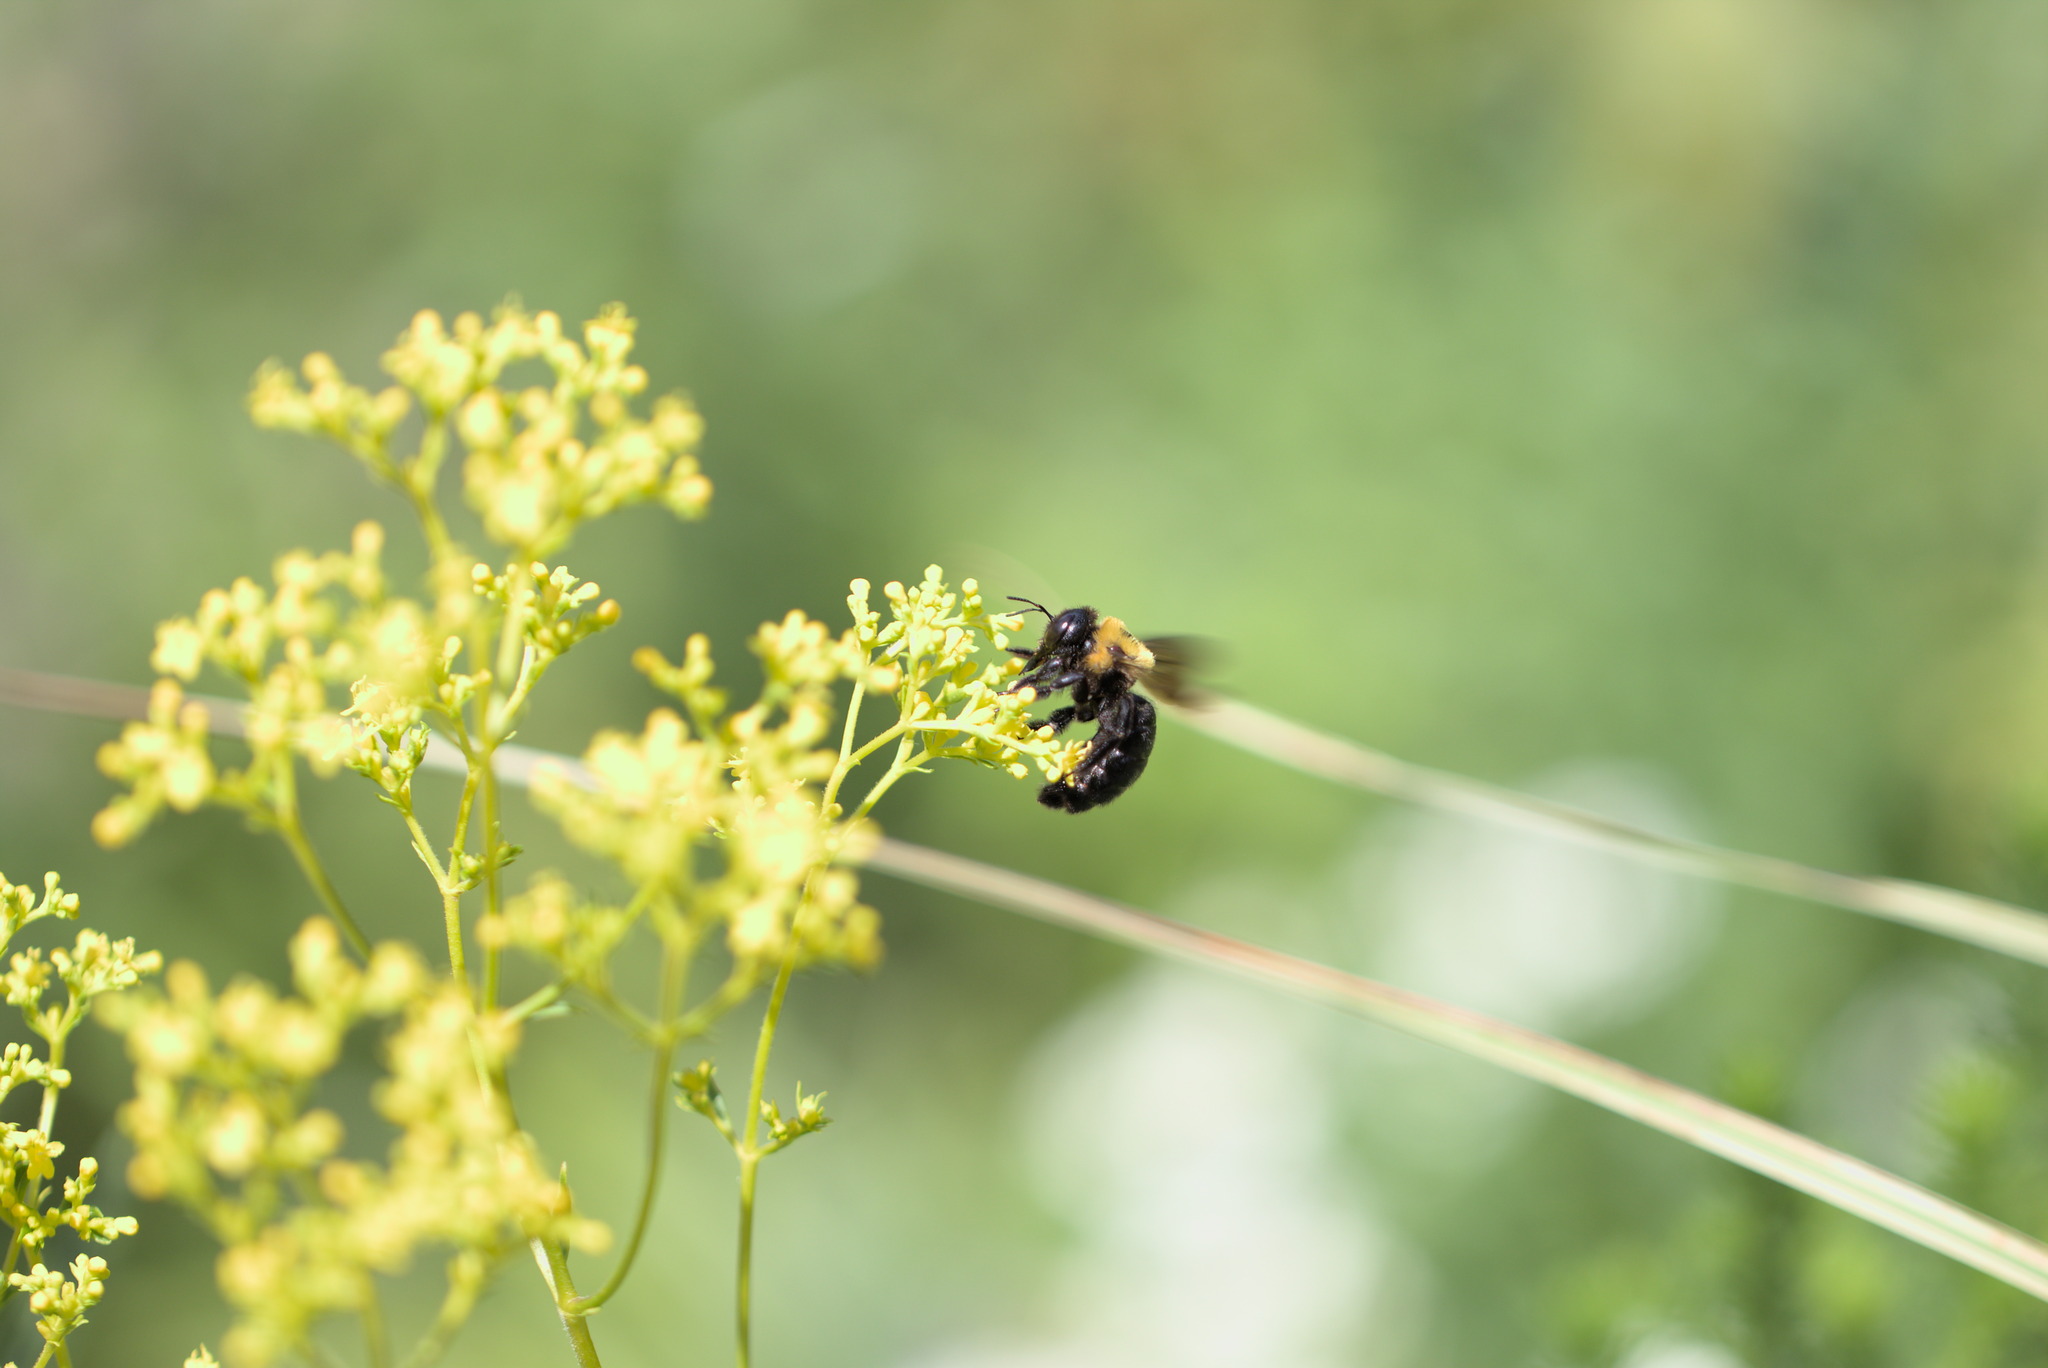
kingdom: Animalia
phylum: Arthropoda
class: Insecta
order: Hymenoptera
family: Apidae
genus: Xylocopa
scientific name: Xylocopa appendiculata
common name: Japanese carpenter bee
